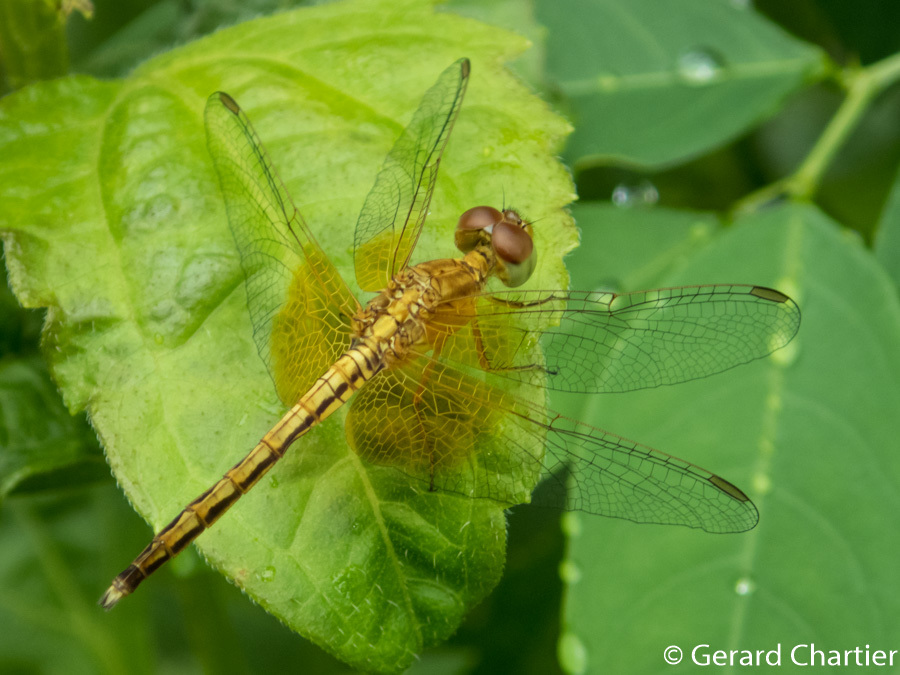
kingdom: Animalia
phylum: Arthropoda
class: Insecta
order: Odonata
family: Libellulidae
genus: Neurothemis
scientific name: Neurothemis intermedia
